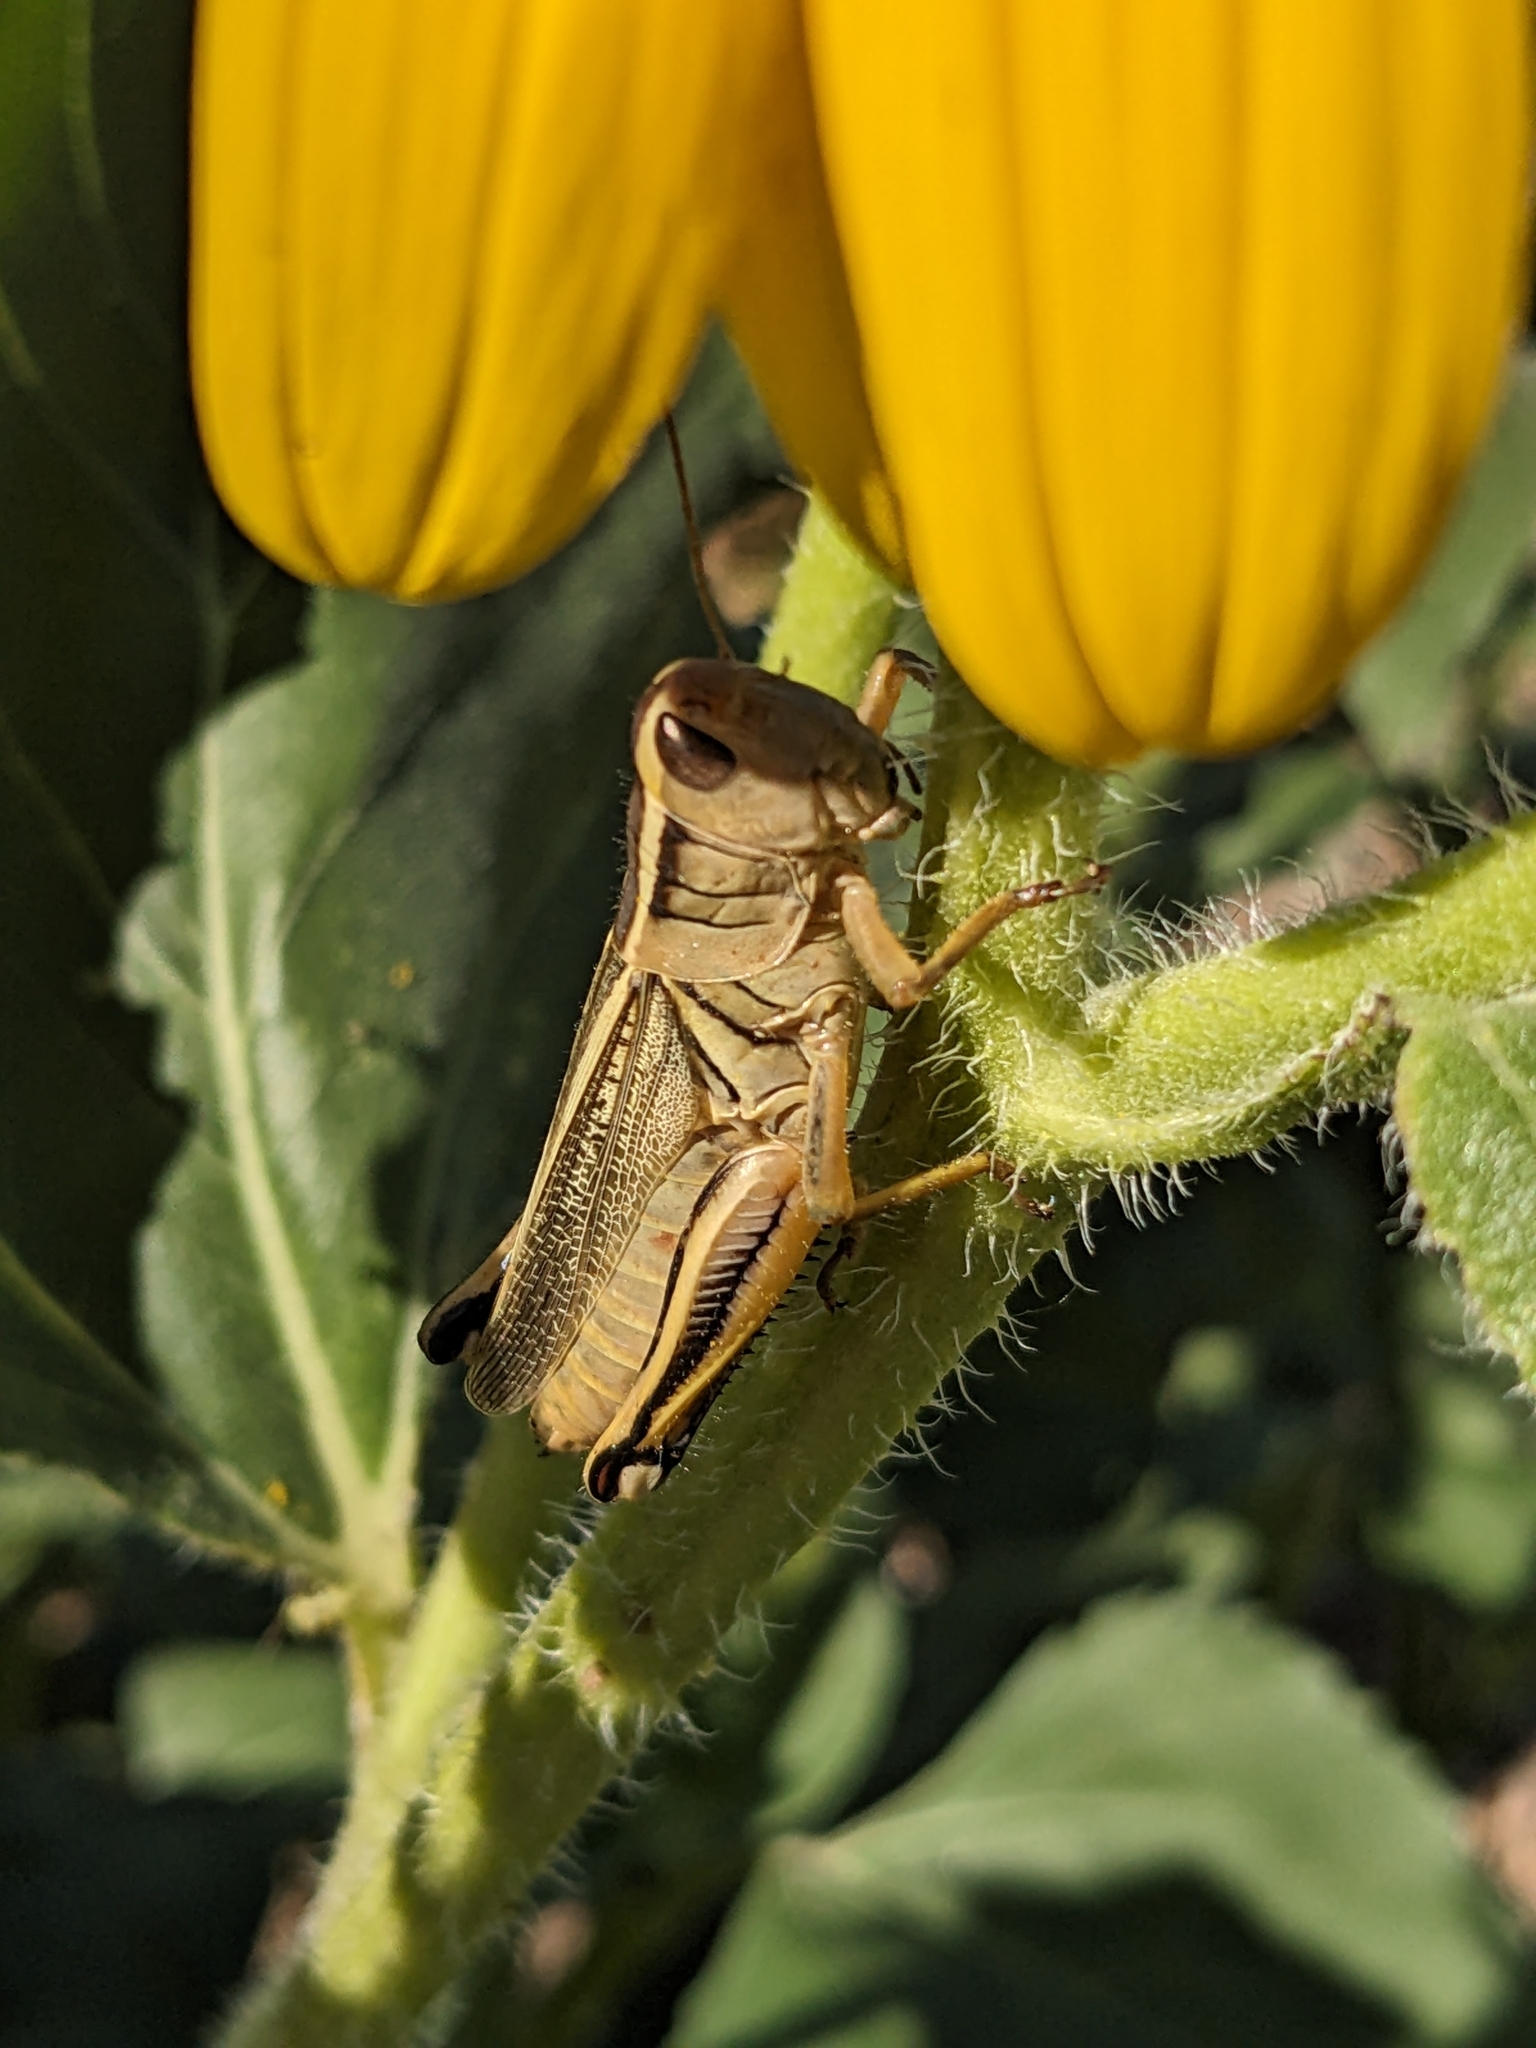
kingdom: Animalia
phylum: Arthropoda
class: Insecta
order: Orthoptera
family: Acrididae
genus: Melanoplus
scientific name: Melanoplus bivittatus
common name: Two-striped grasshopper
